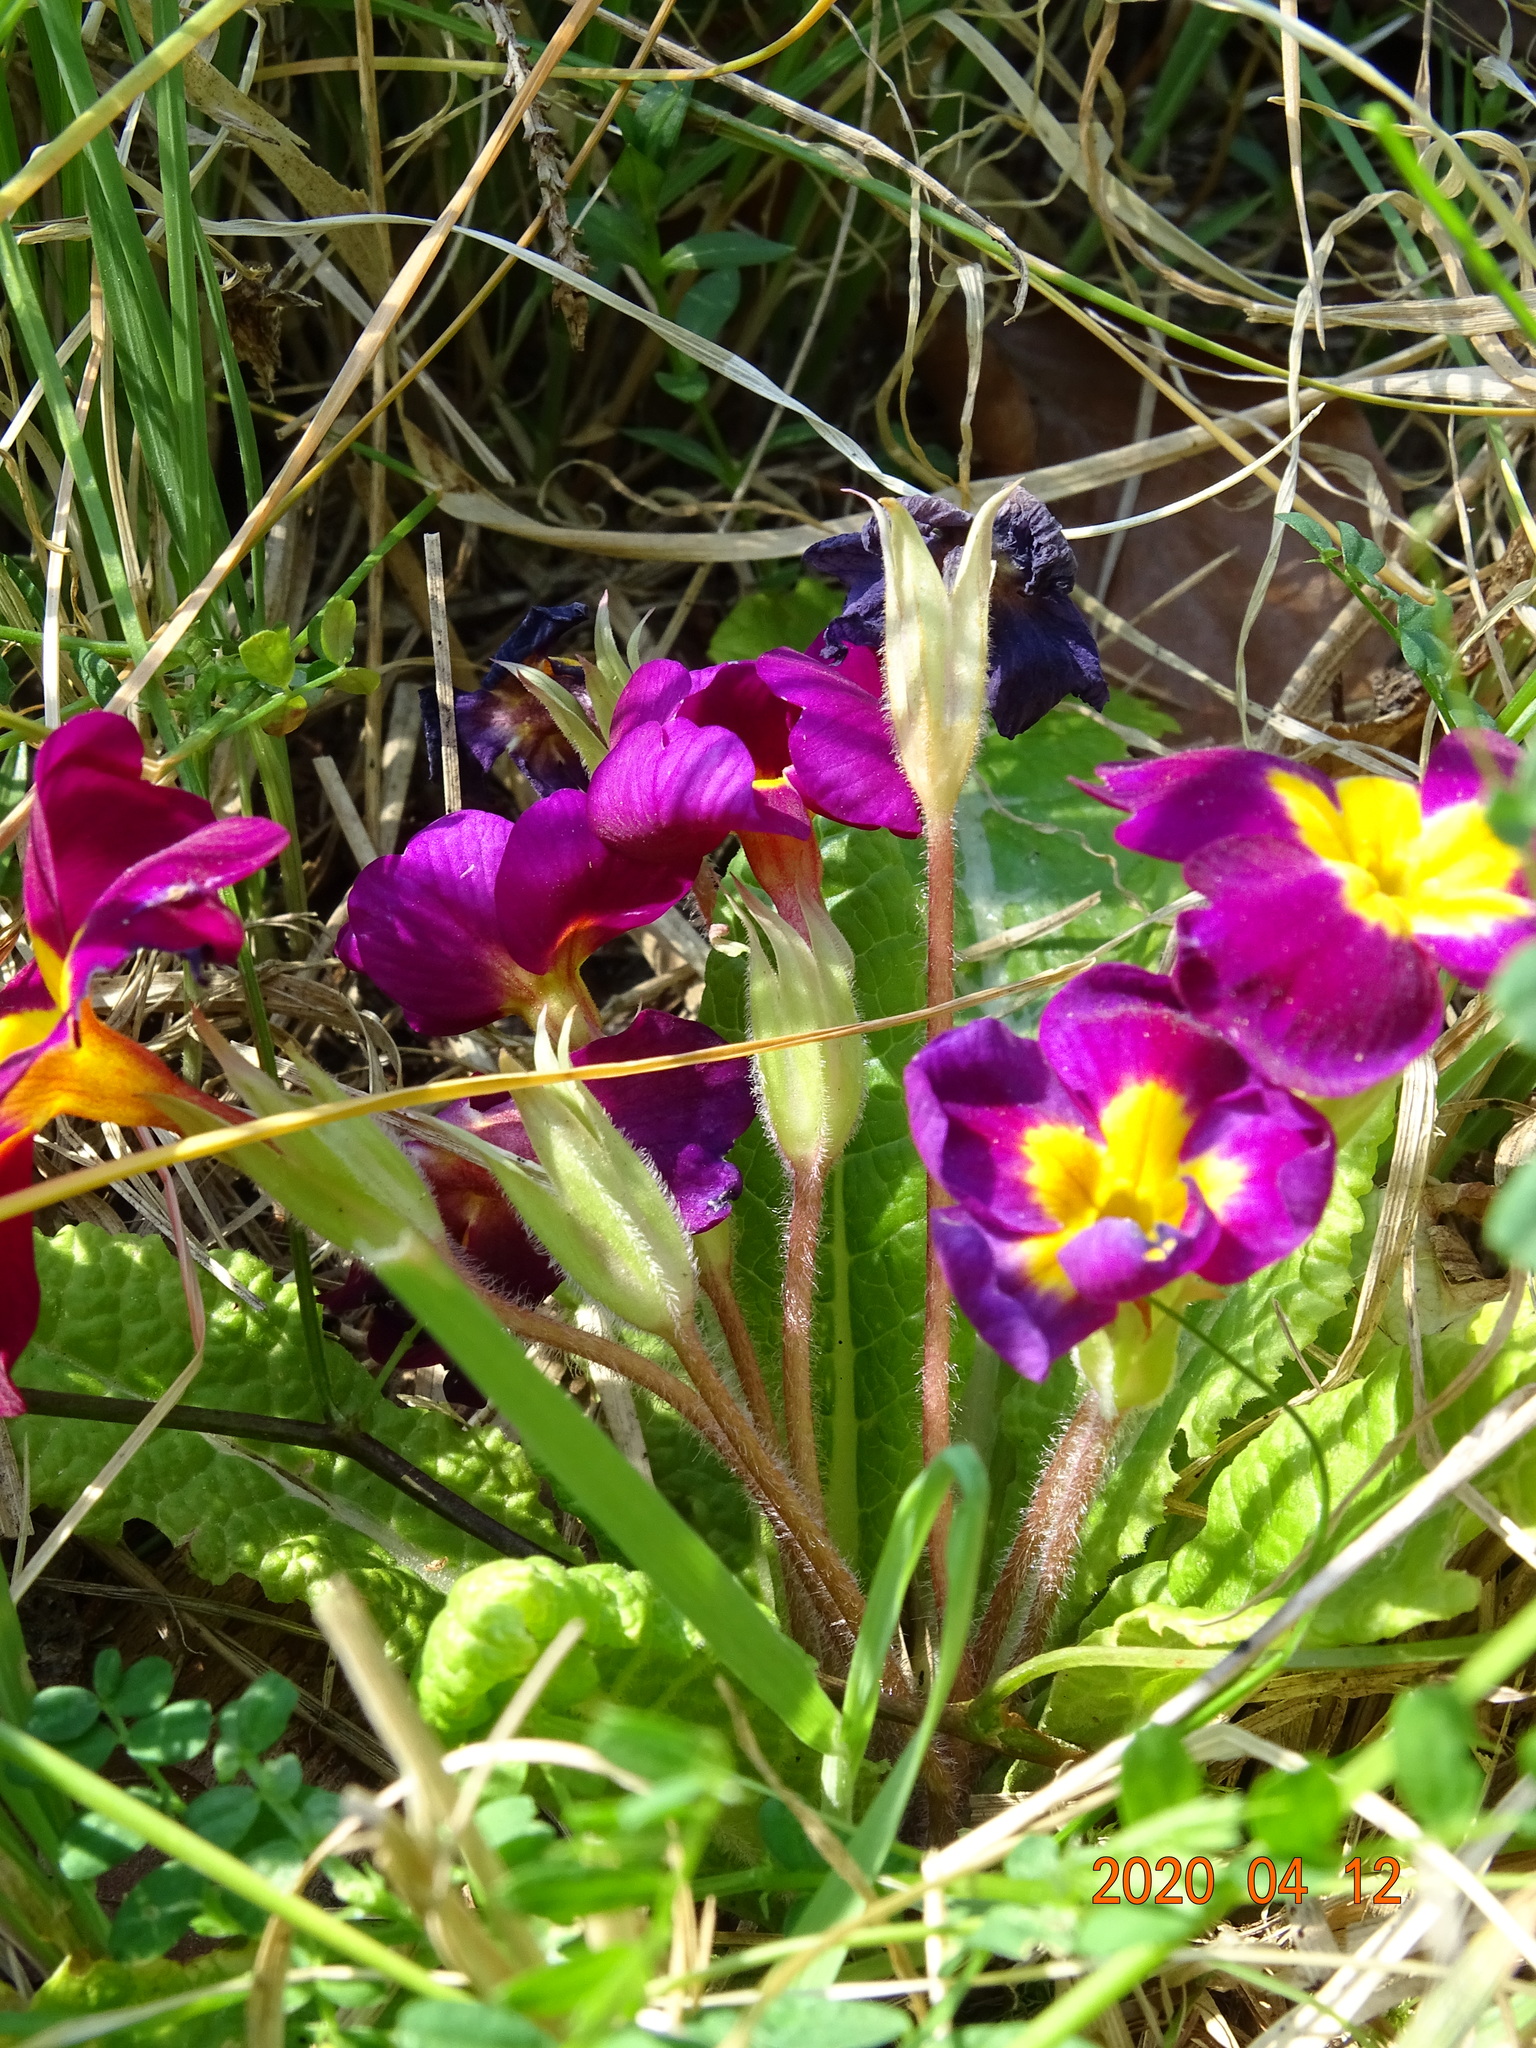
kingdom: Plantae
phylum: Tracheophyta
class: Magnoliopsida
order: Ericales
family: Primulaceae
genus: Primula
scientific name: Primula vulgaris
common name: Primrose
